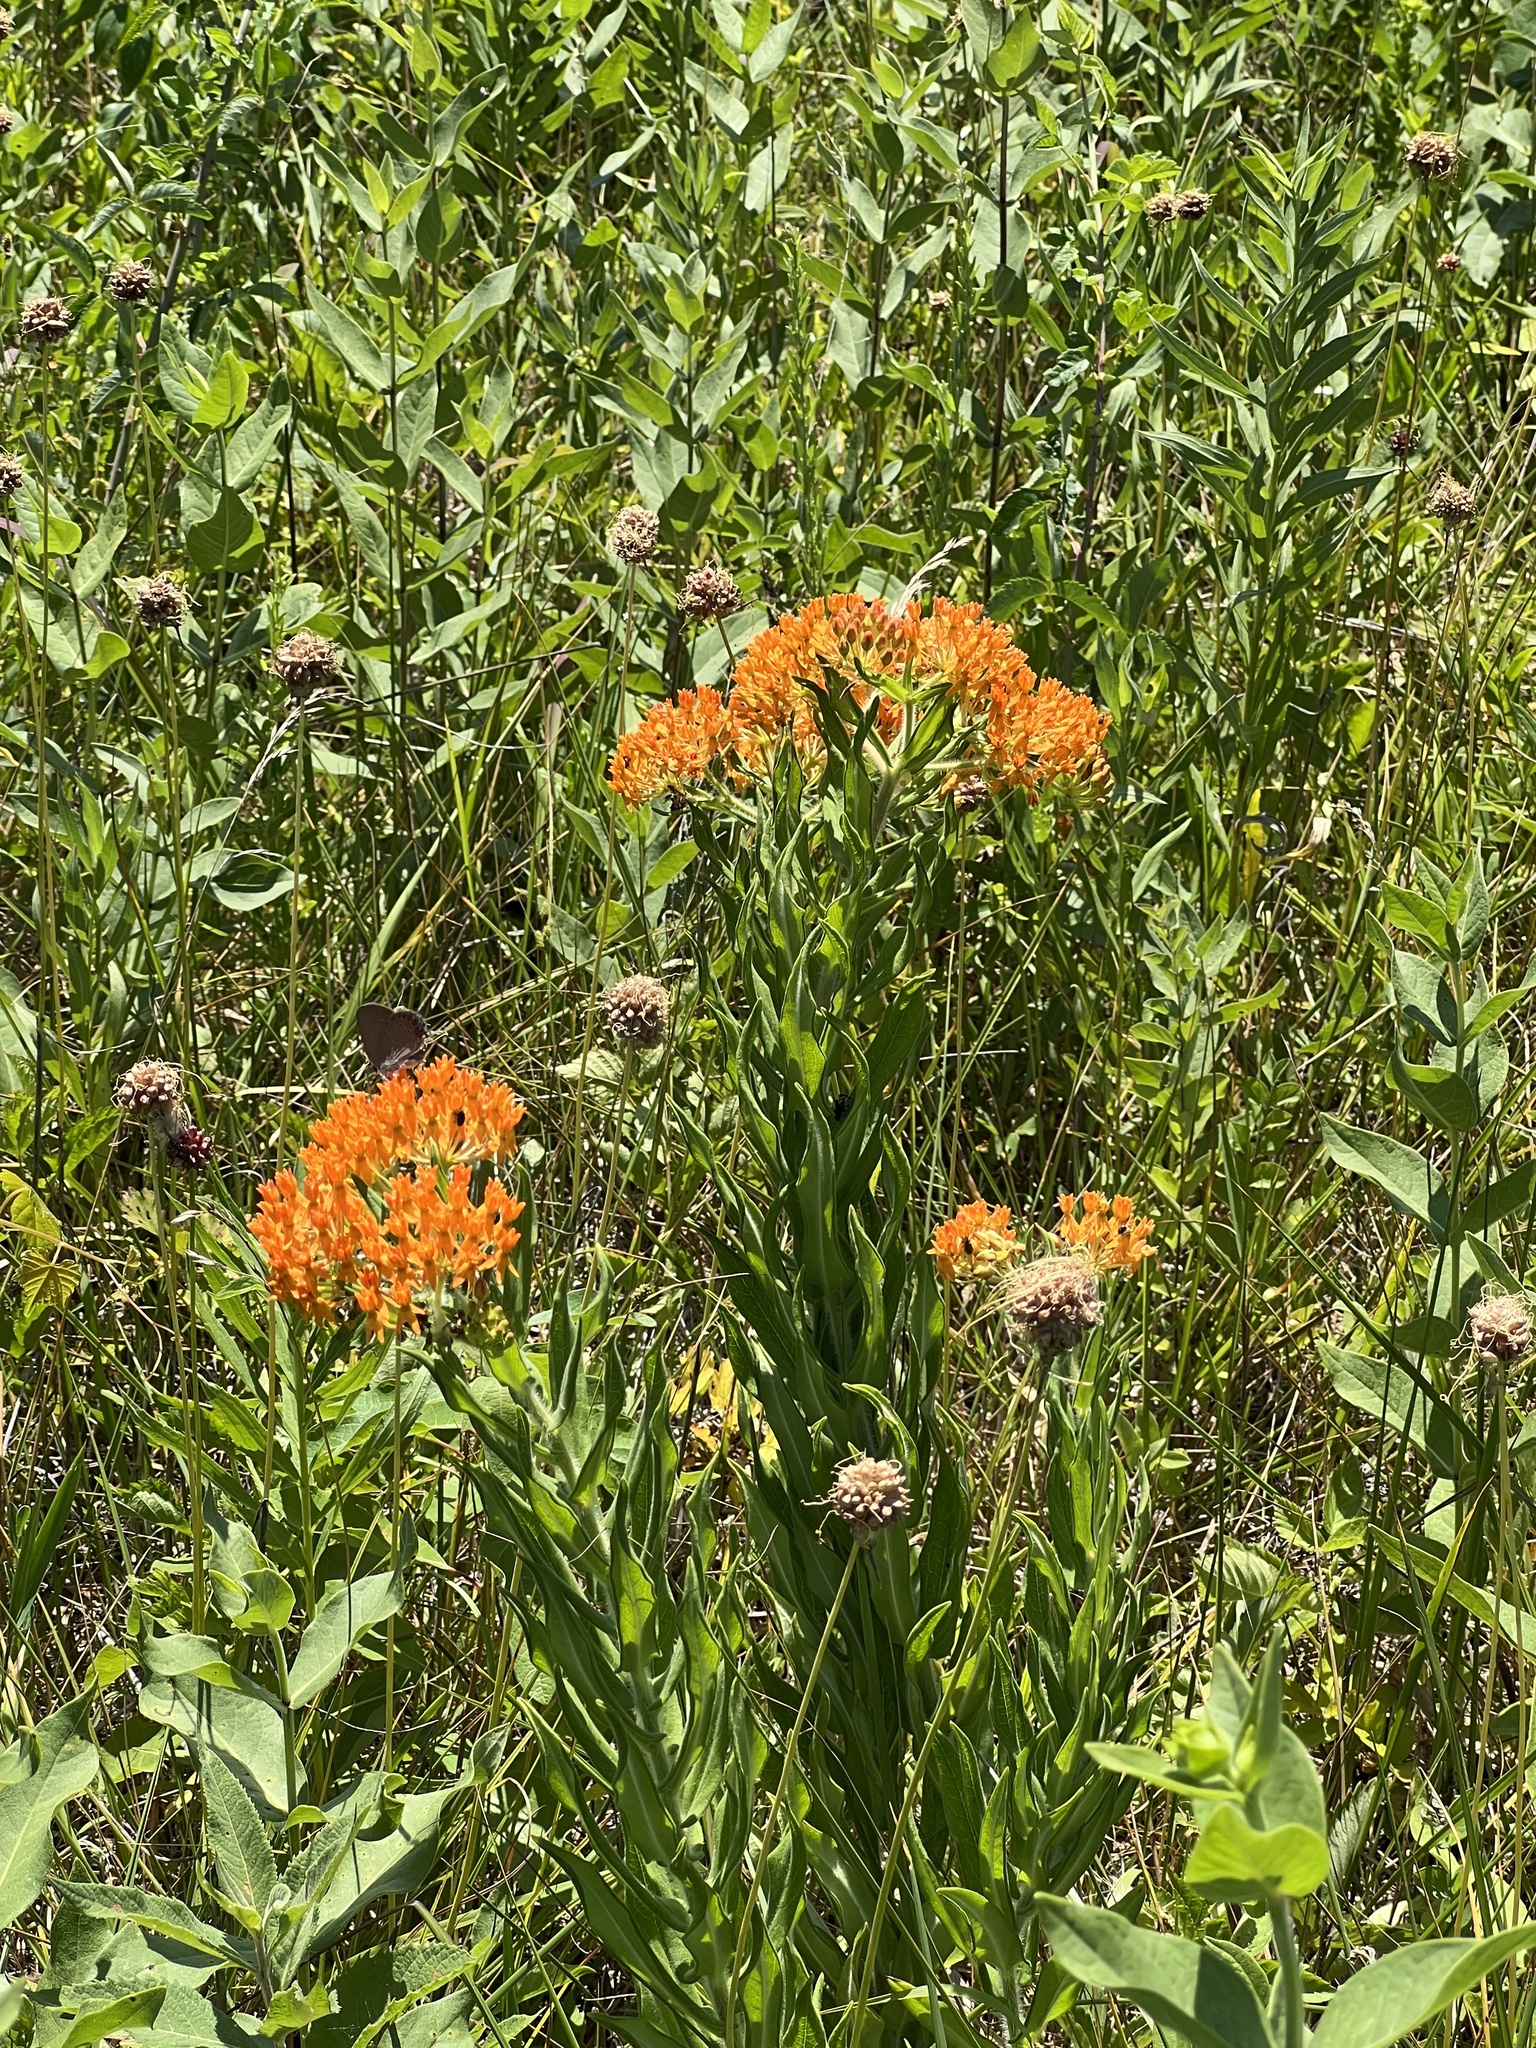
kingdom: Plantae
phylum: Tracheophyta
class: Magnoliopsida
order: Gentianales
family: Apocynaceae
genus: Asclepias
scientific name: Asclepias tuberosa
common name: Butterfly milkweed
